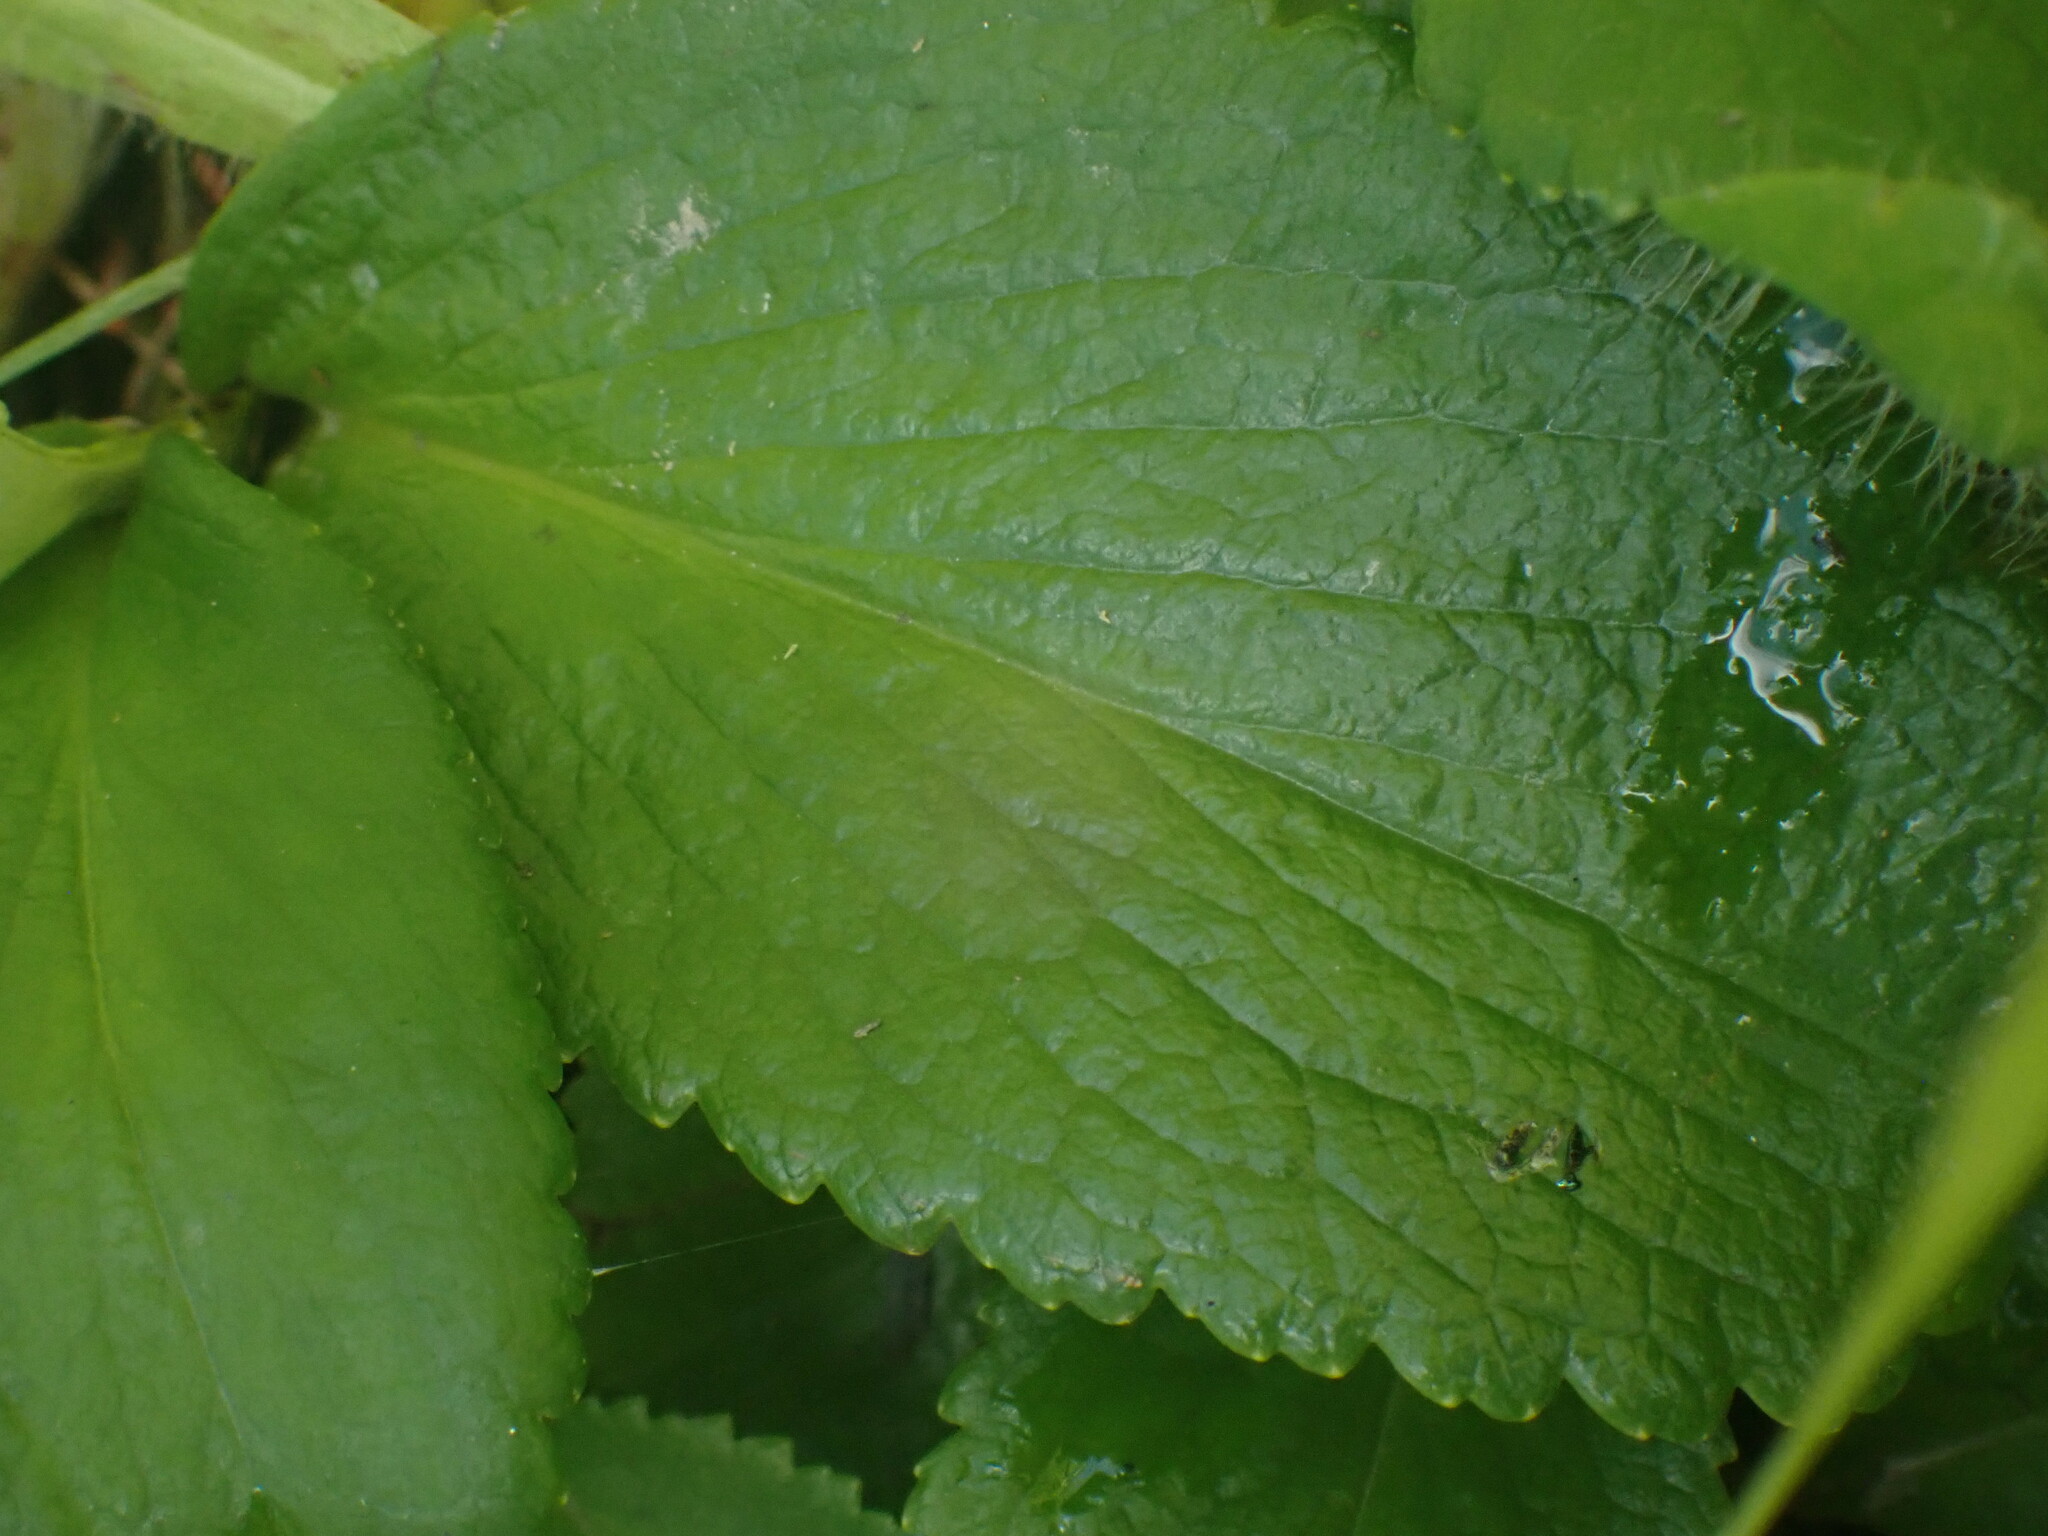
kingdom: Plantae
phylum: Tracheophyta
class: Magnoliopsida
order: Saxifragales
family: Saxifragaceae
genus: Leptarrhena
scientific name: Leptarrhena pyrolifolia
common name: Leatherleaf-saxifrage
